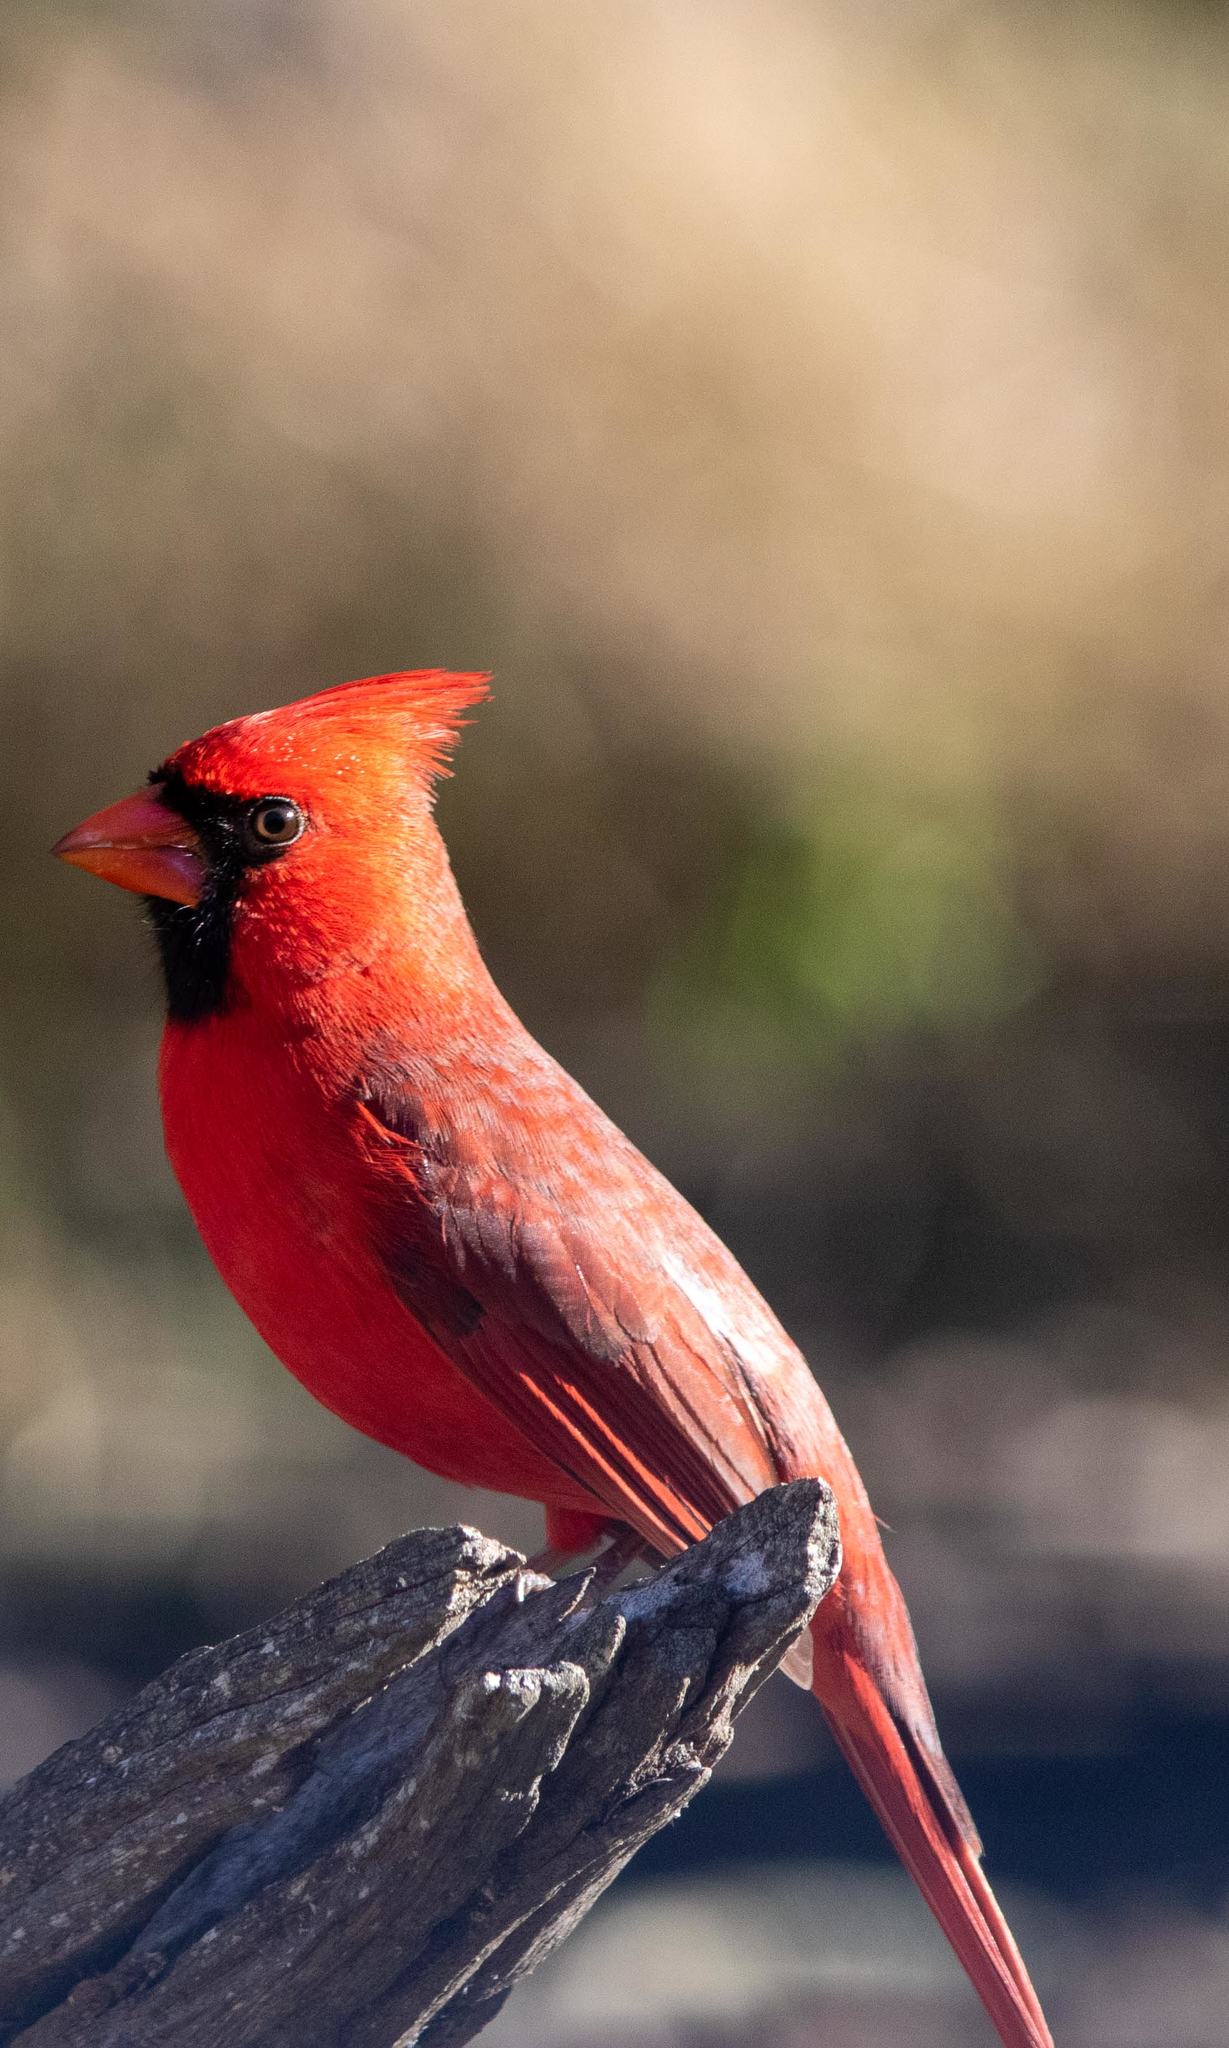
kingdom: Animalia
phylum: Chordata
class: Aves
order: Passeriformes
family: Cardinalidae
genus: Cardinalis
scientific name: Cardinalis cardinalis
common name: Northern cardinal
